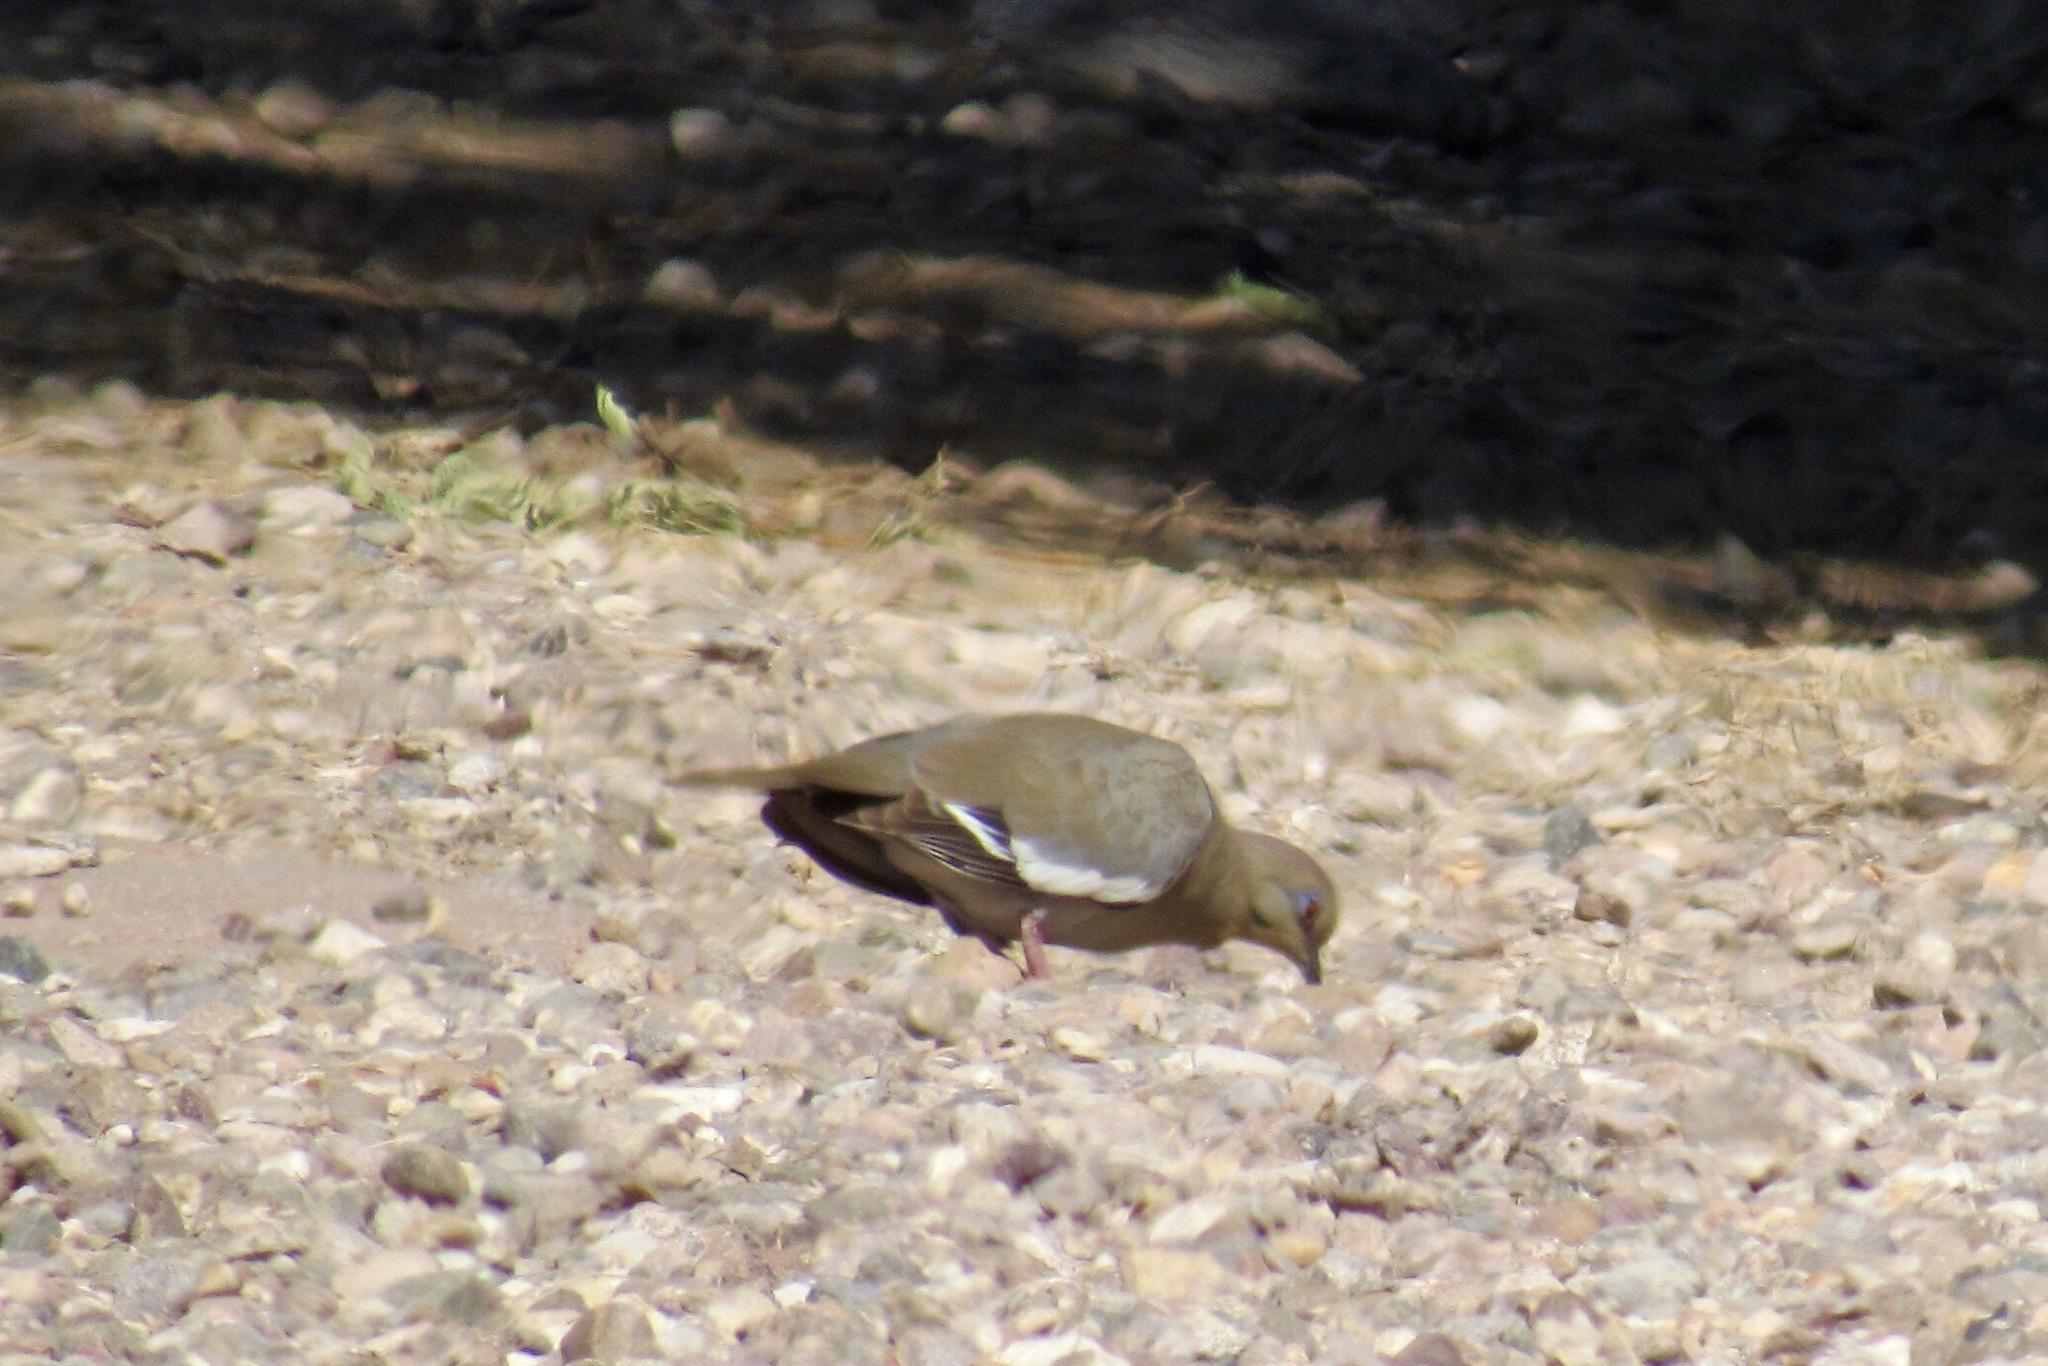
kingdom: Animalia
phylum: Chordata
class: Aves
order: Columbiformes
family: Columbidae
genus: Zenaida
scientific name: Zenaida asiatica
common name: White-winged dove
